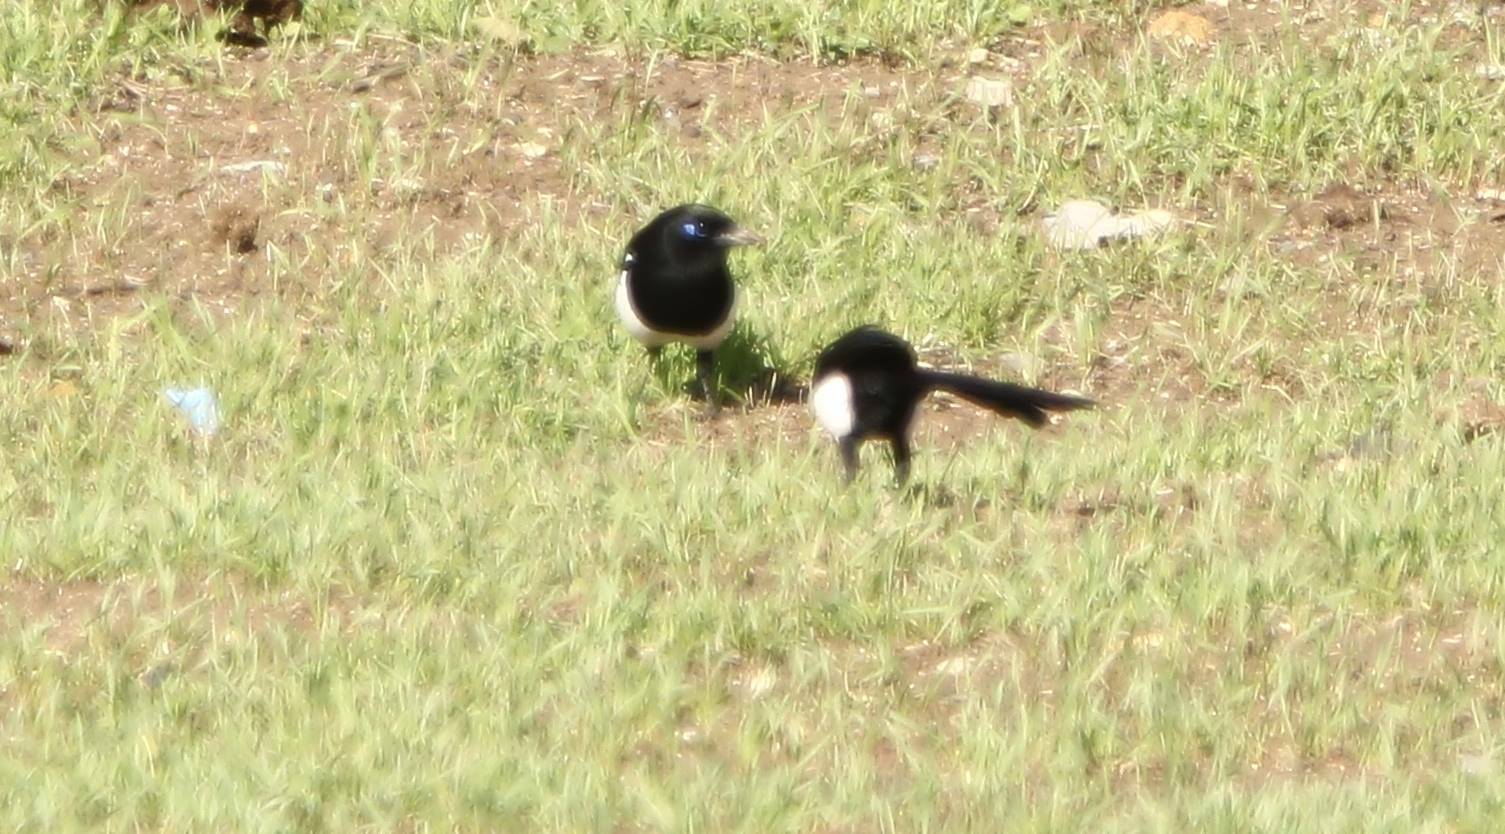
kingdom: Animalia
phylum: Chordata
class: Aves
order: Passeriformes
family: Corvidae
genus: Pica
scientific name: Pica mauritanica
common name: Maghreb magpie
